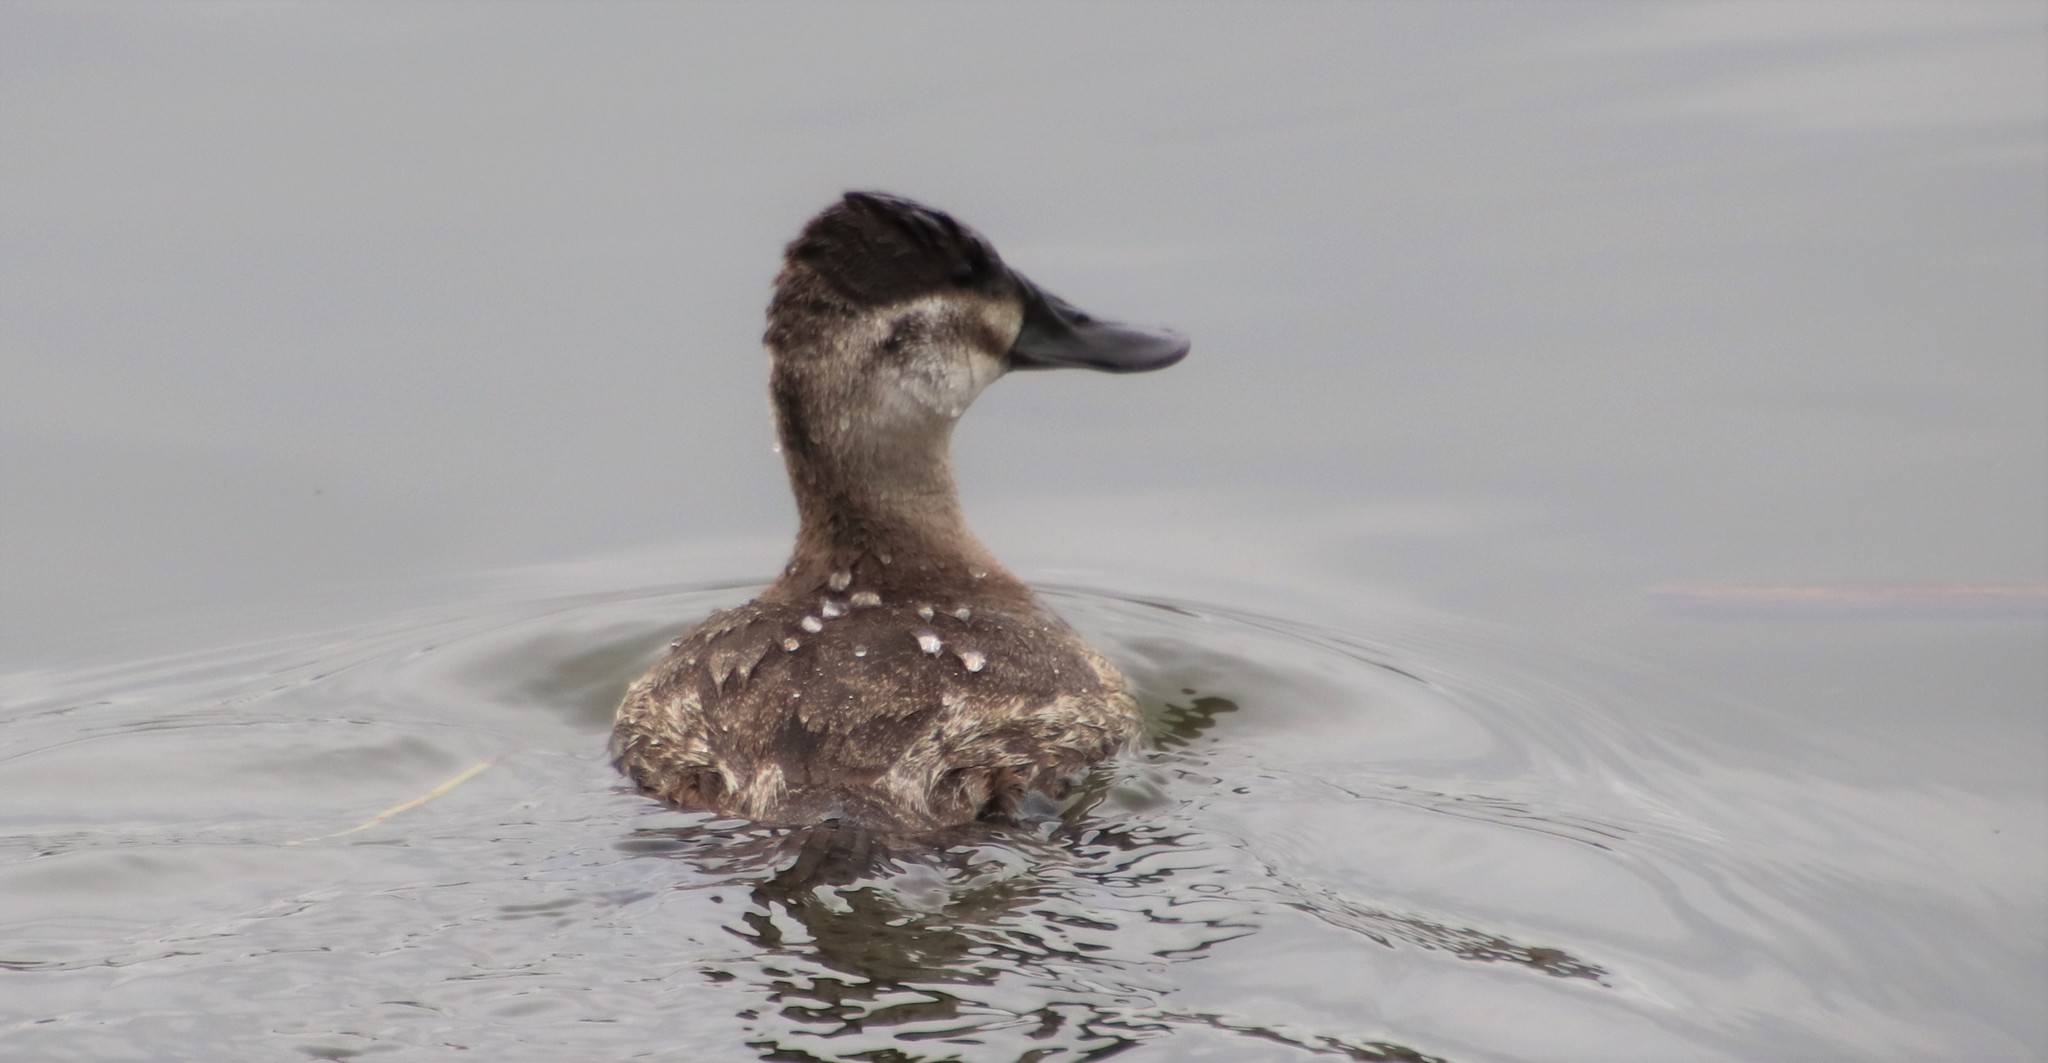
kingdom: Animalia
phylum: Chordata
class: Aves
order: Anseriformes
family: Anatidae
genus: Oxyura
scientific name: Oxyura jamaicensis
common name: Ruddy duck
